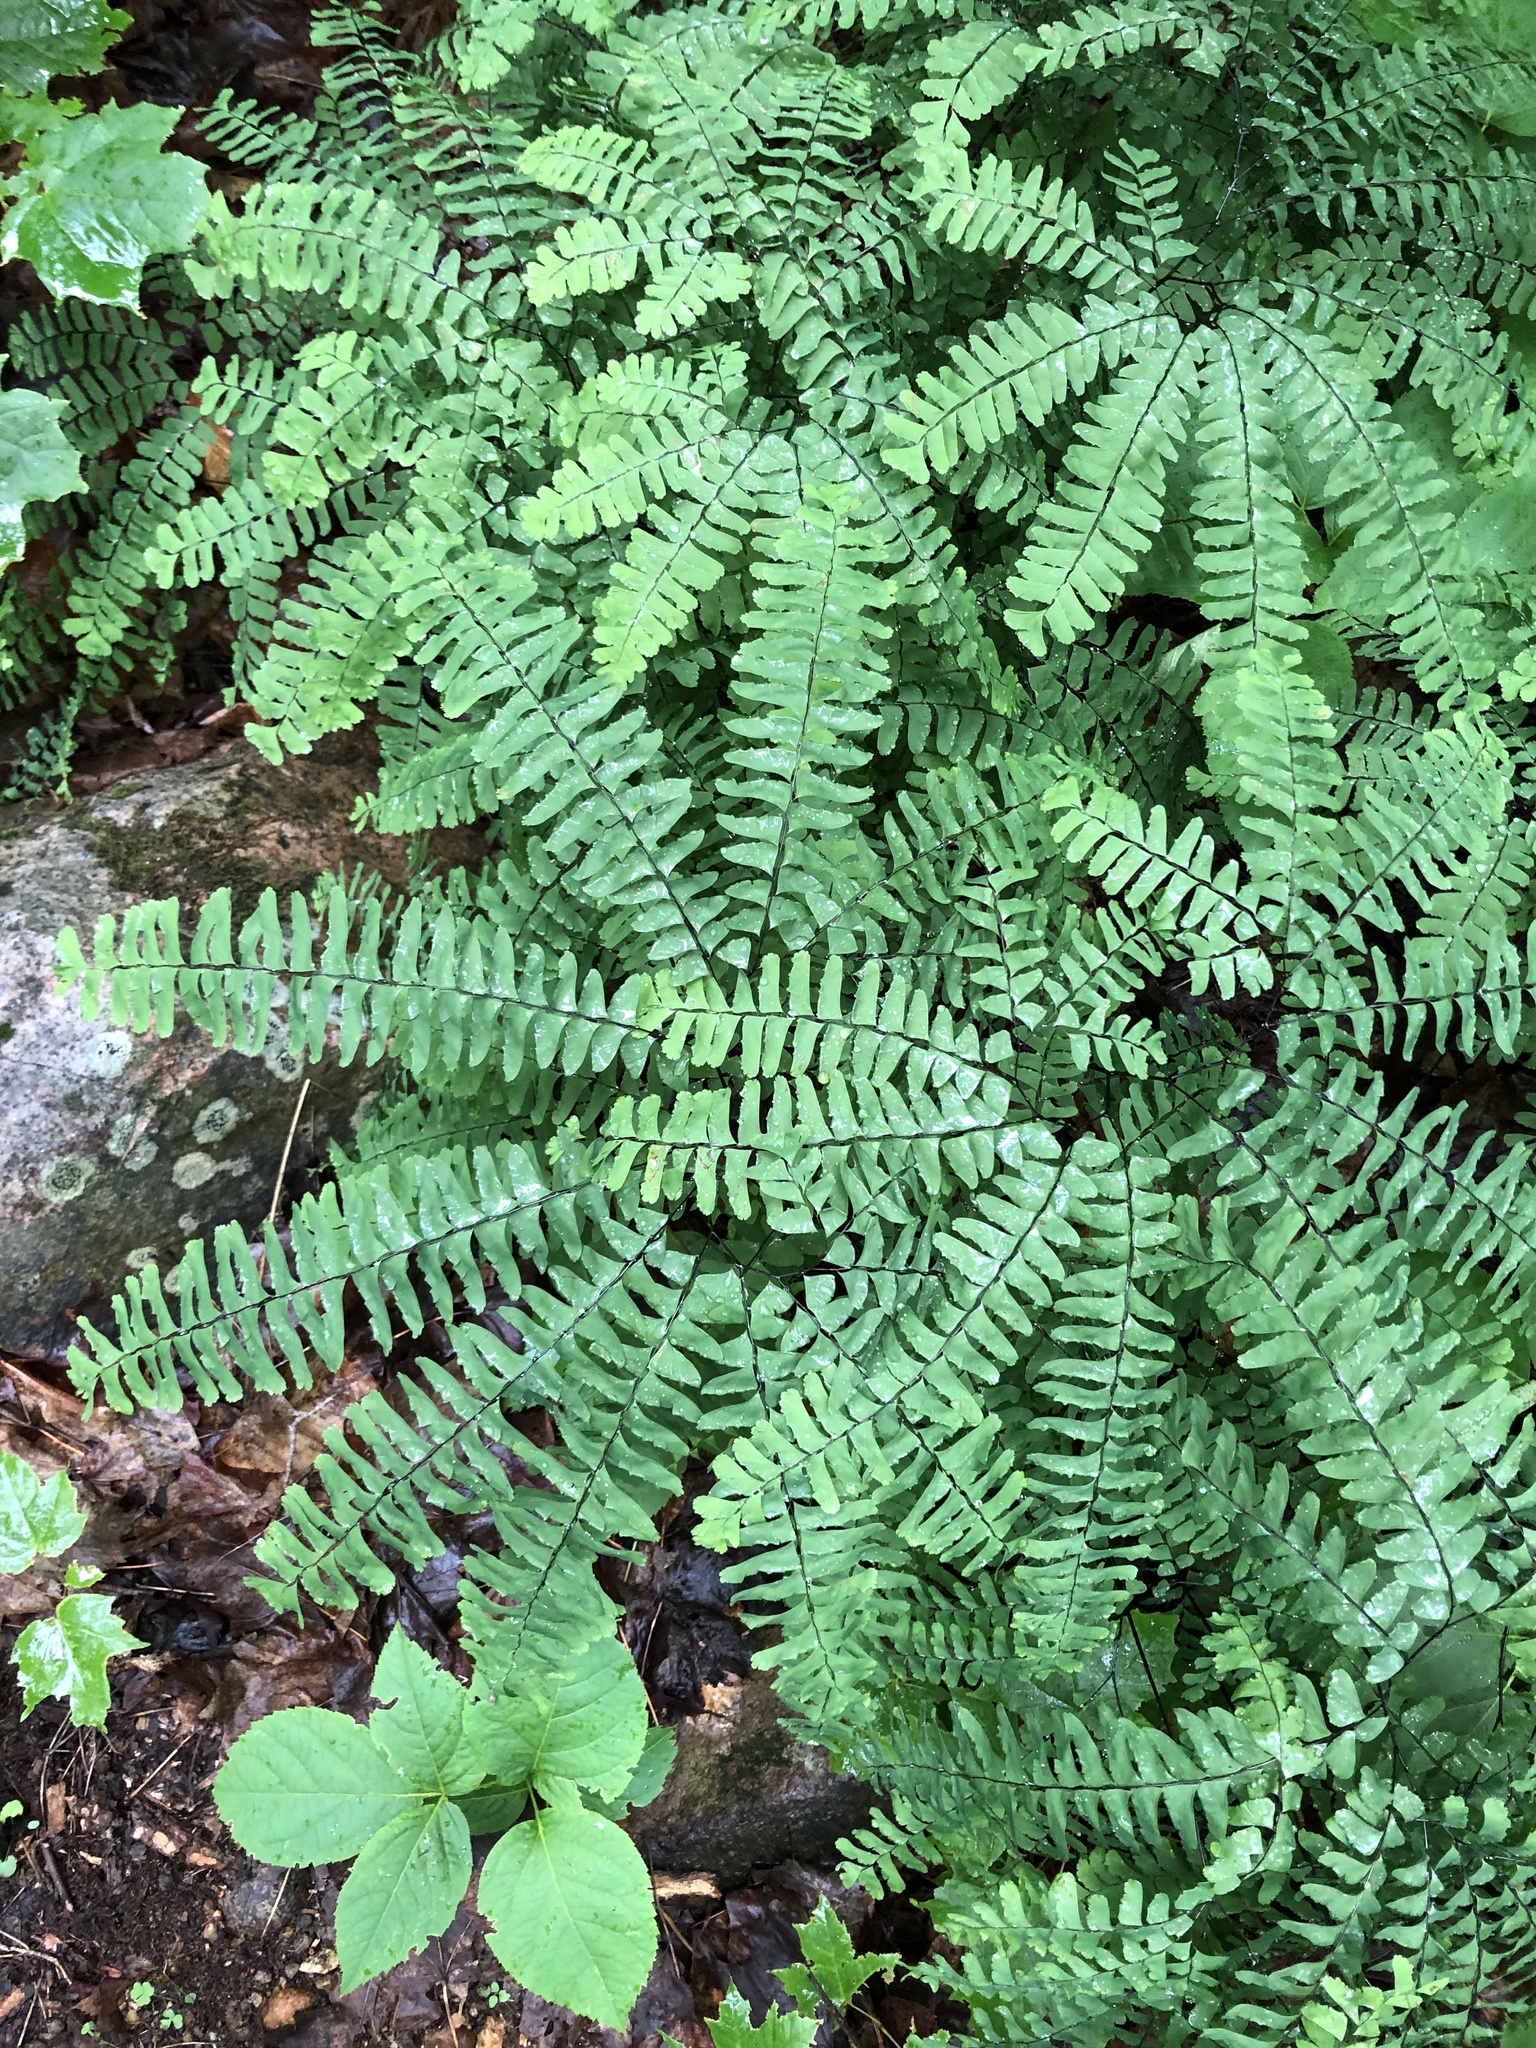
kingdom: Plantae
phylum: Tracheophyta
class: Polypodiopsida
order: Polypodiales
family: Pteridaceae
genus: Adiantum
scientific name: Adiantum pedatum
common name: Five-finger fern
